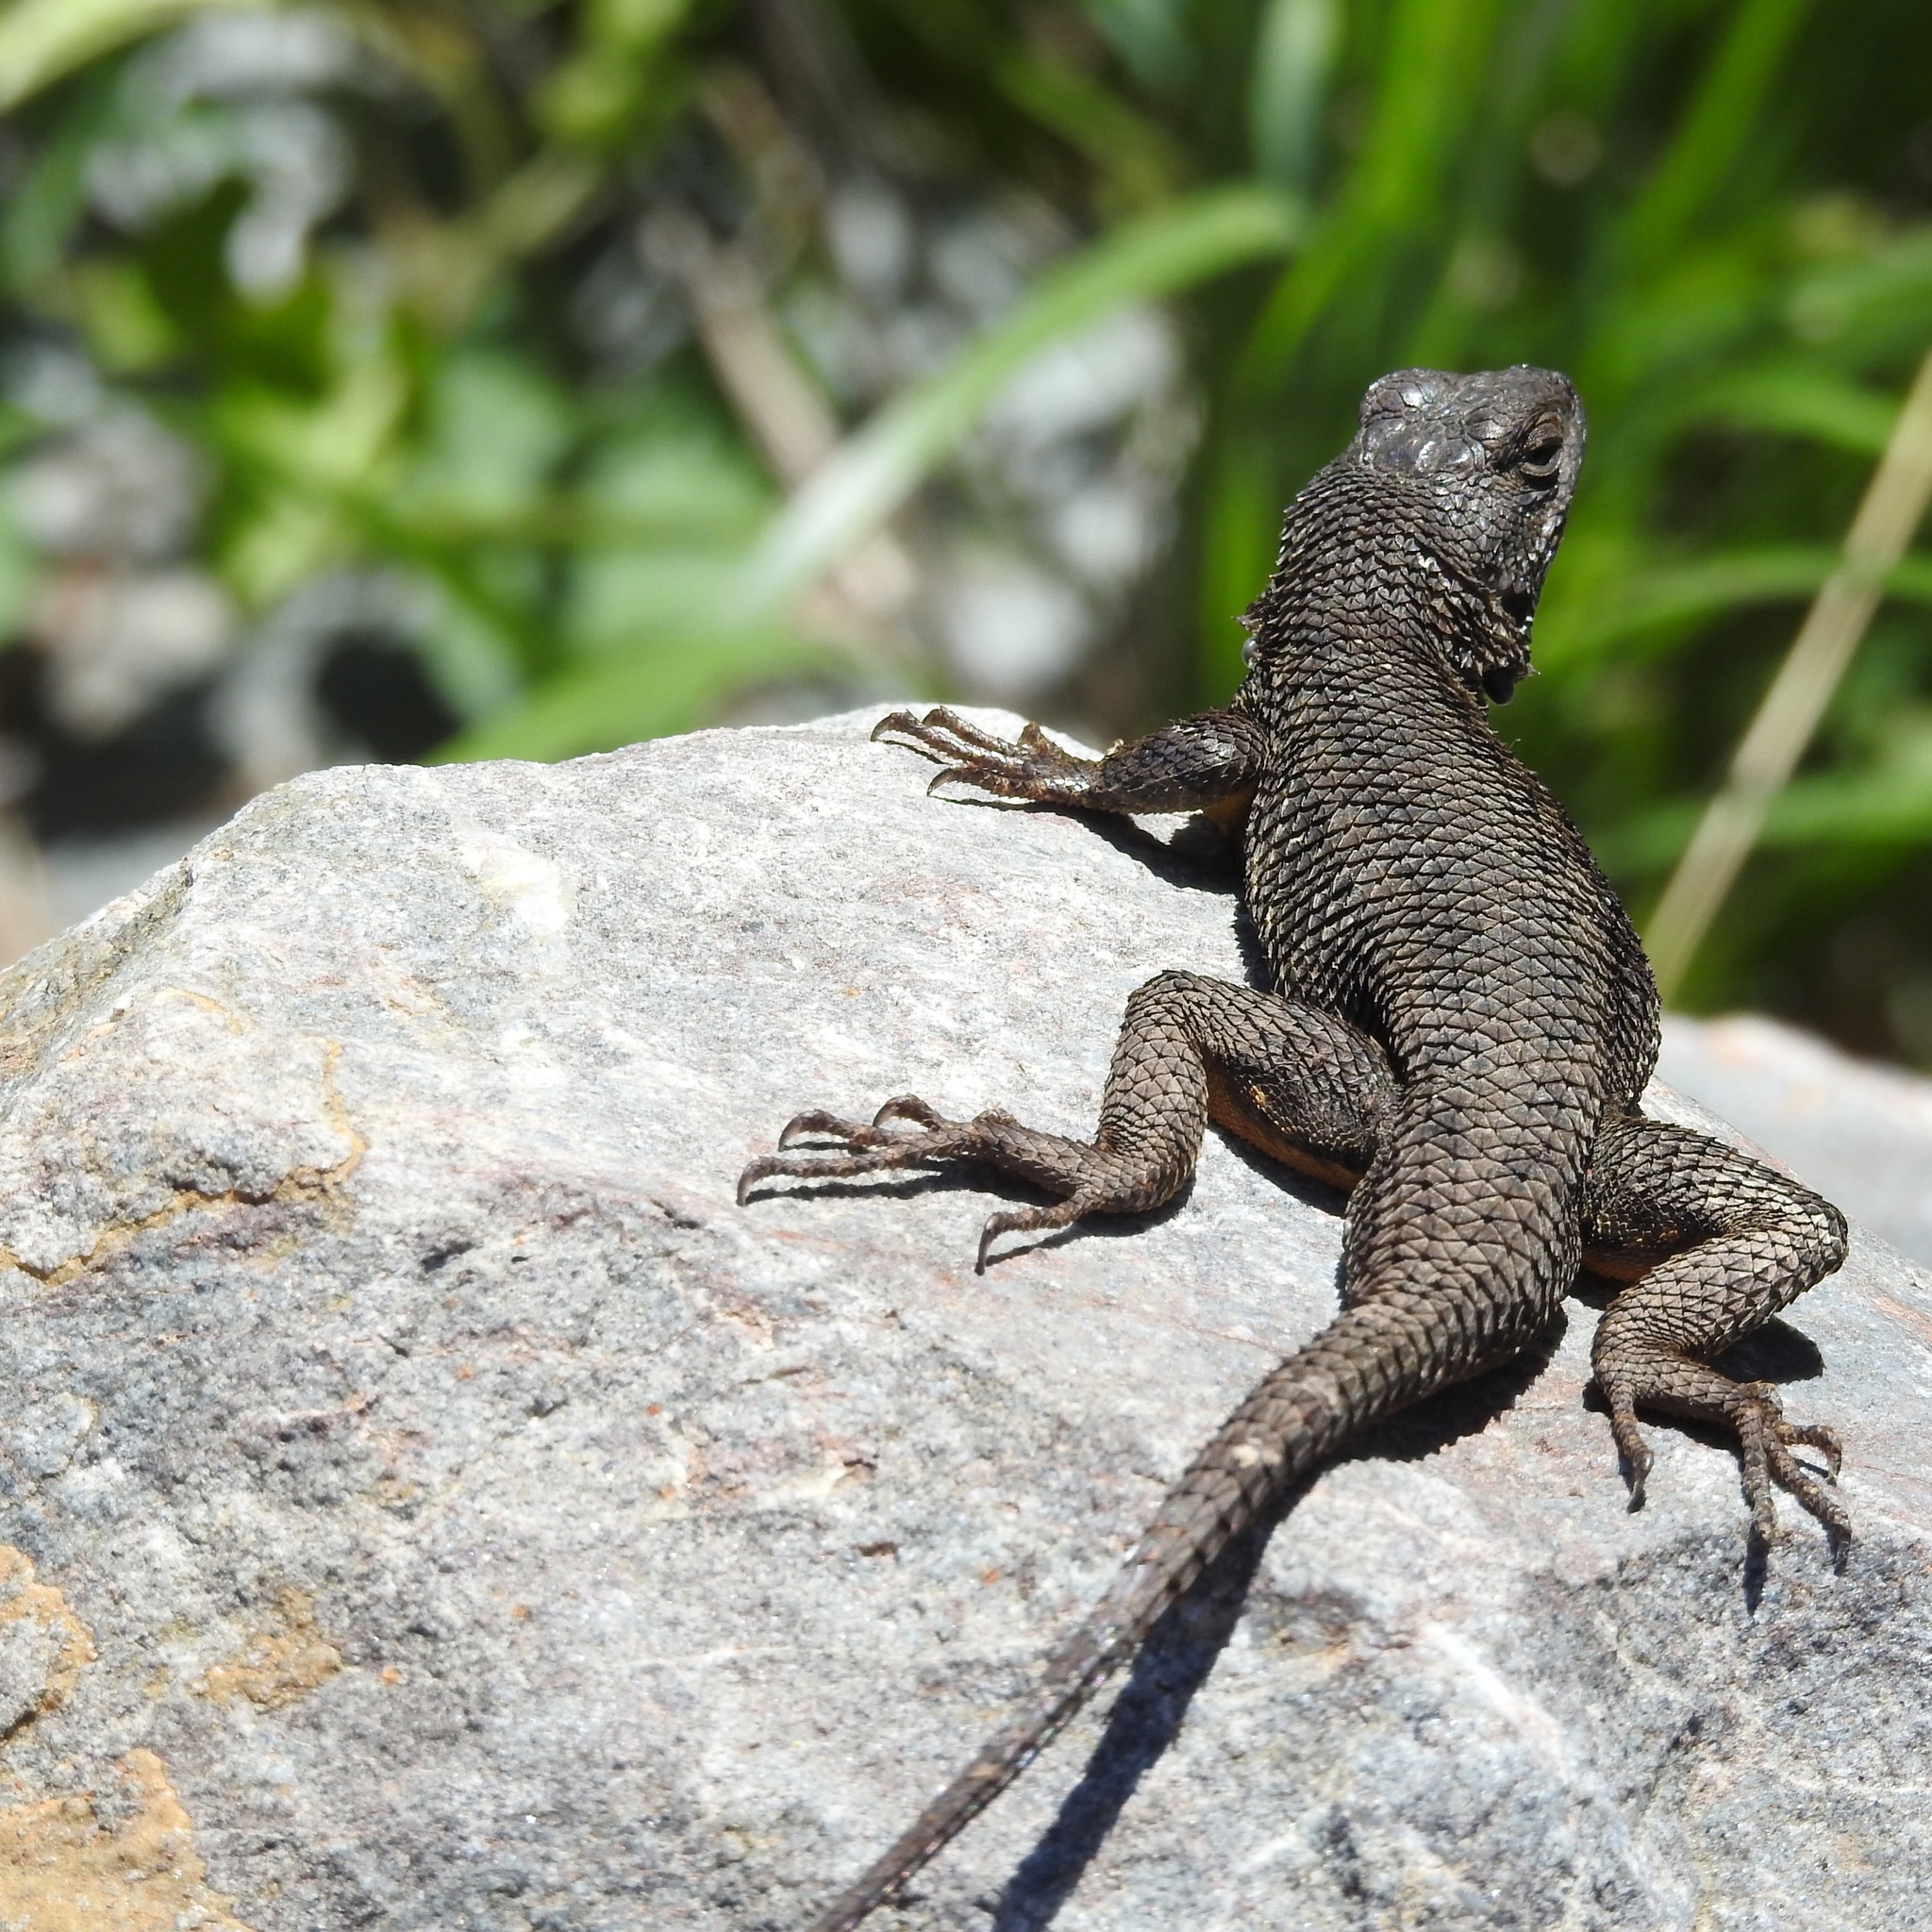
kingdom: Animalia
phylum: Chordata
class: Squamata
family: Phrynosomatidae
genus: Sceloporus
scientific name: Sceloporus occidentalis
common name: Western fence lizard
